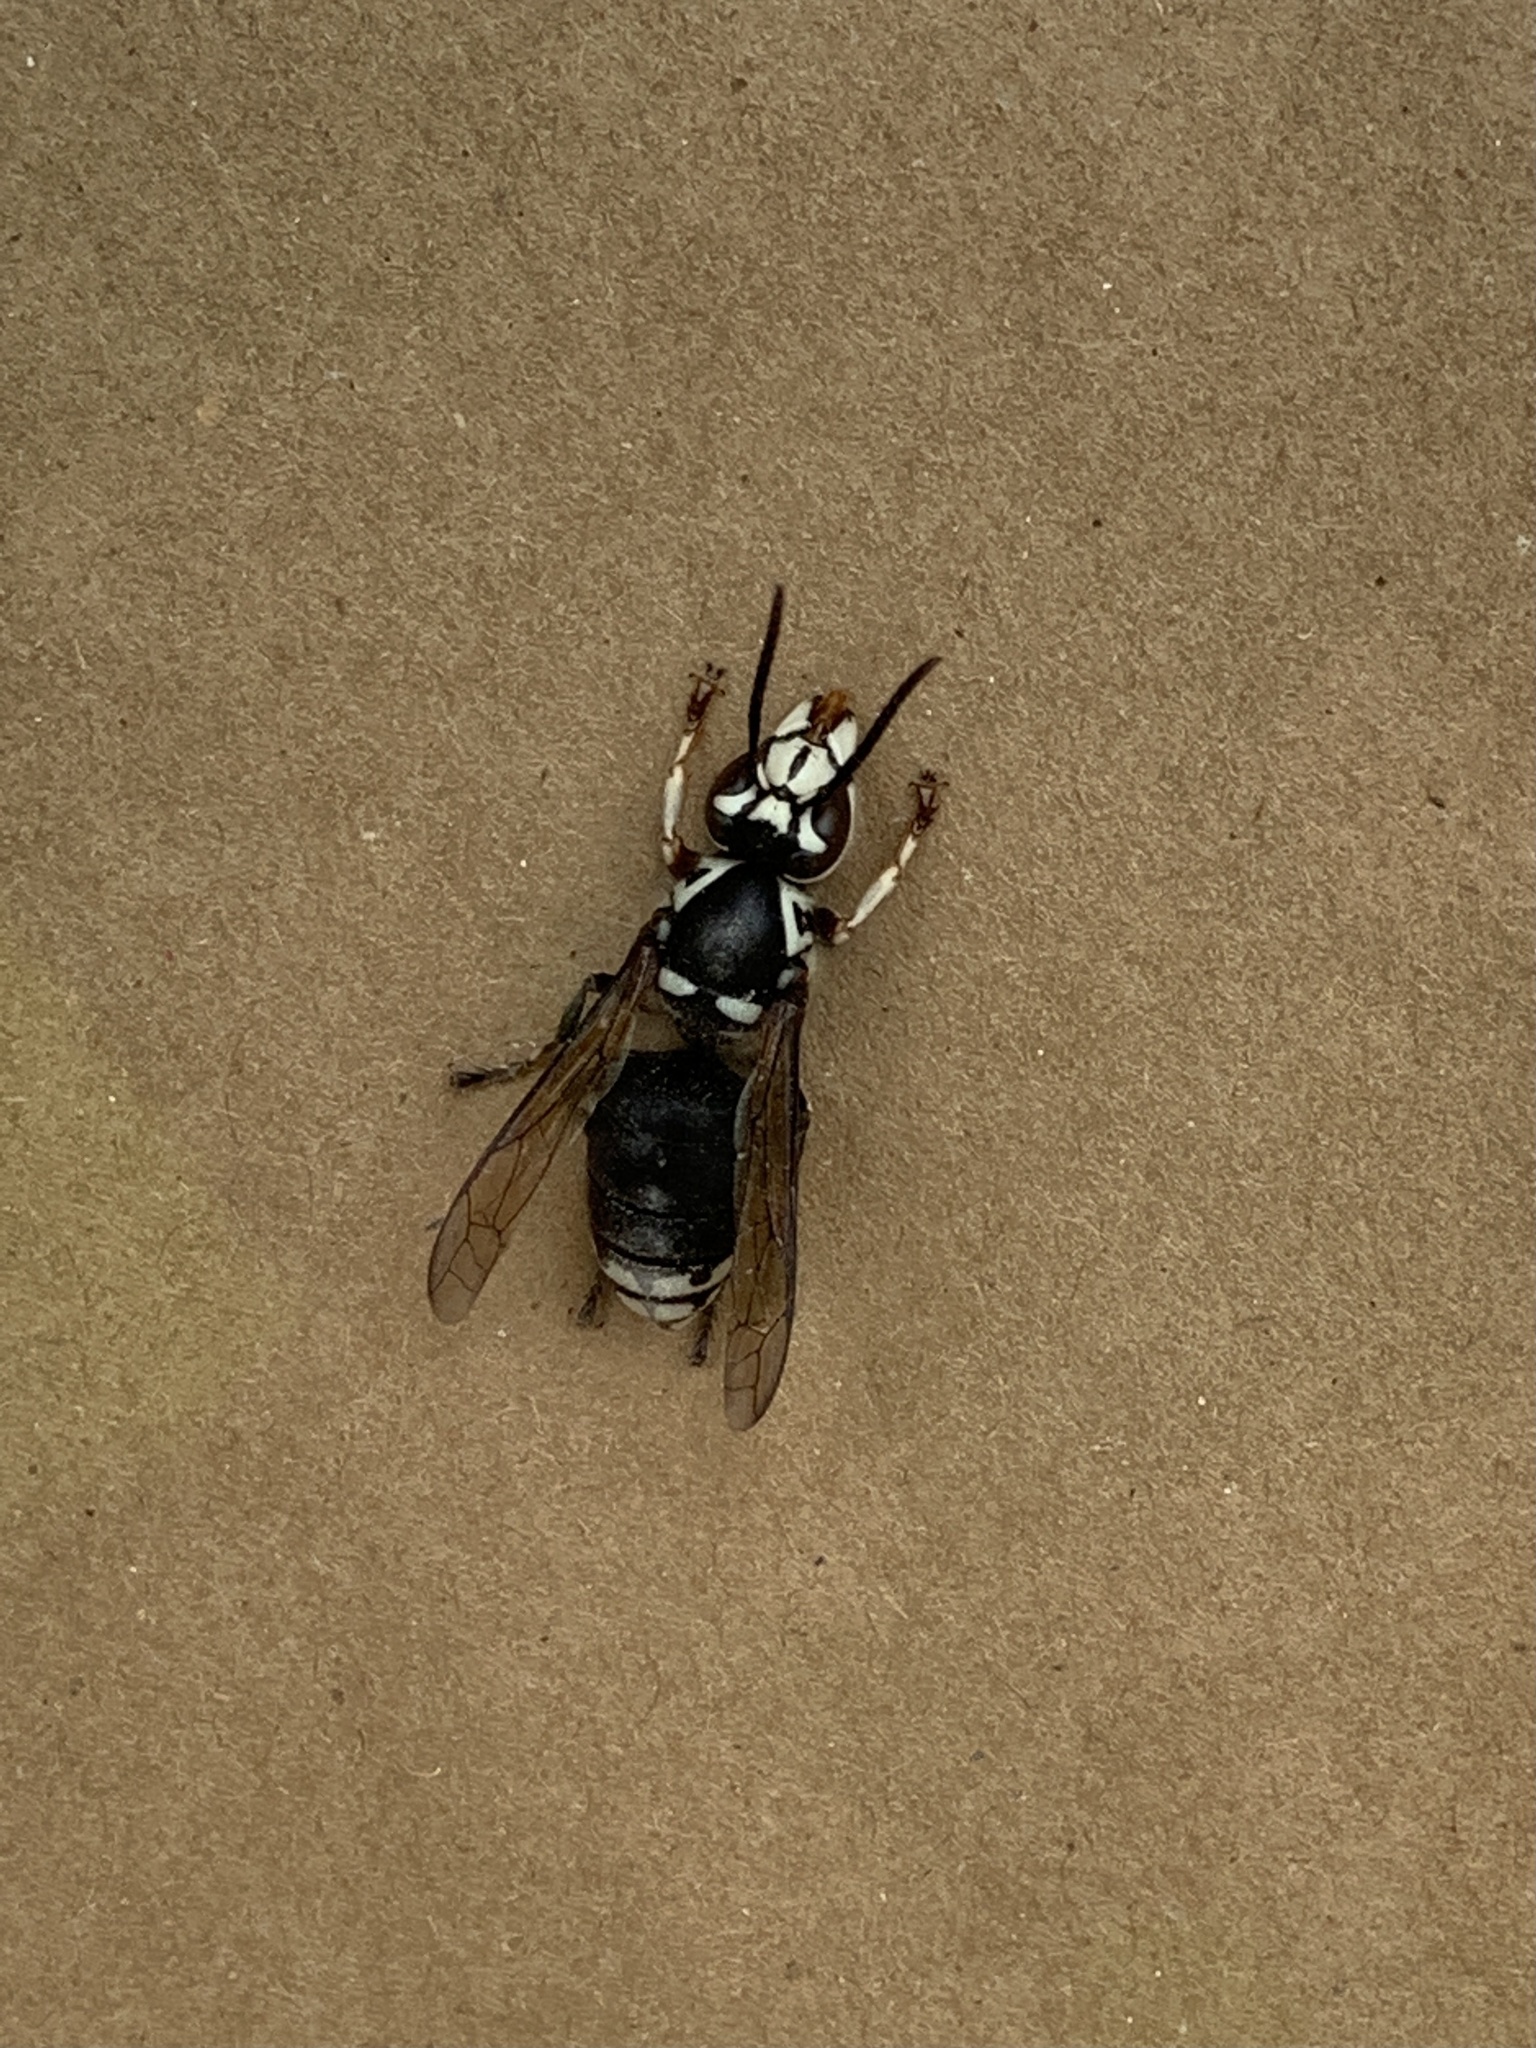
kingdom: Animalia
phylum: Arthropoda
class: Insecta
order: Hymenoptera
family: Vespidae
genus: Dolichovespula
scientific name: Dolichovespula maculata
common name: Bald-faced hornet
